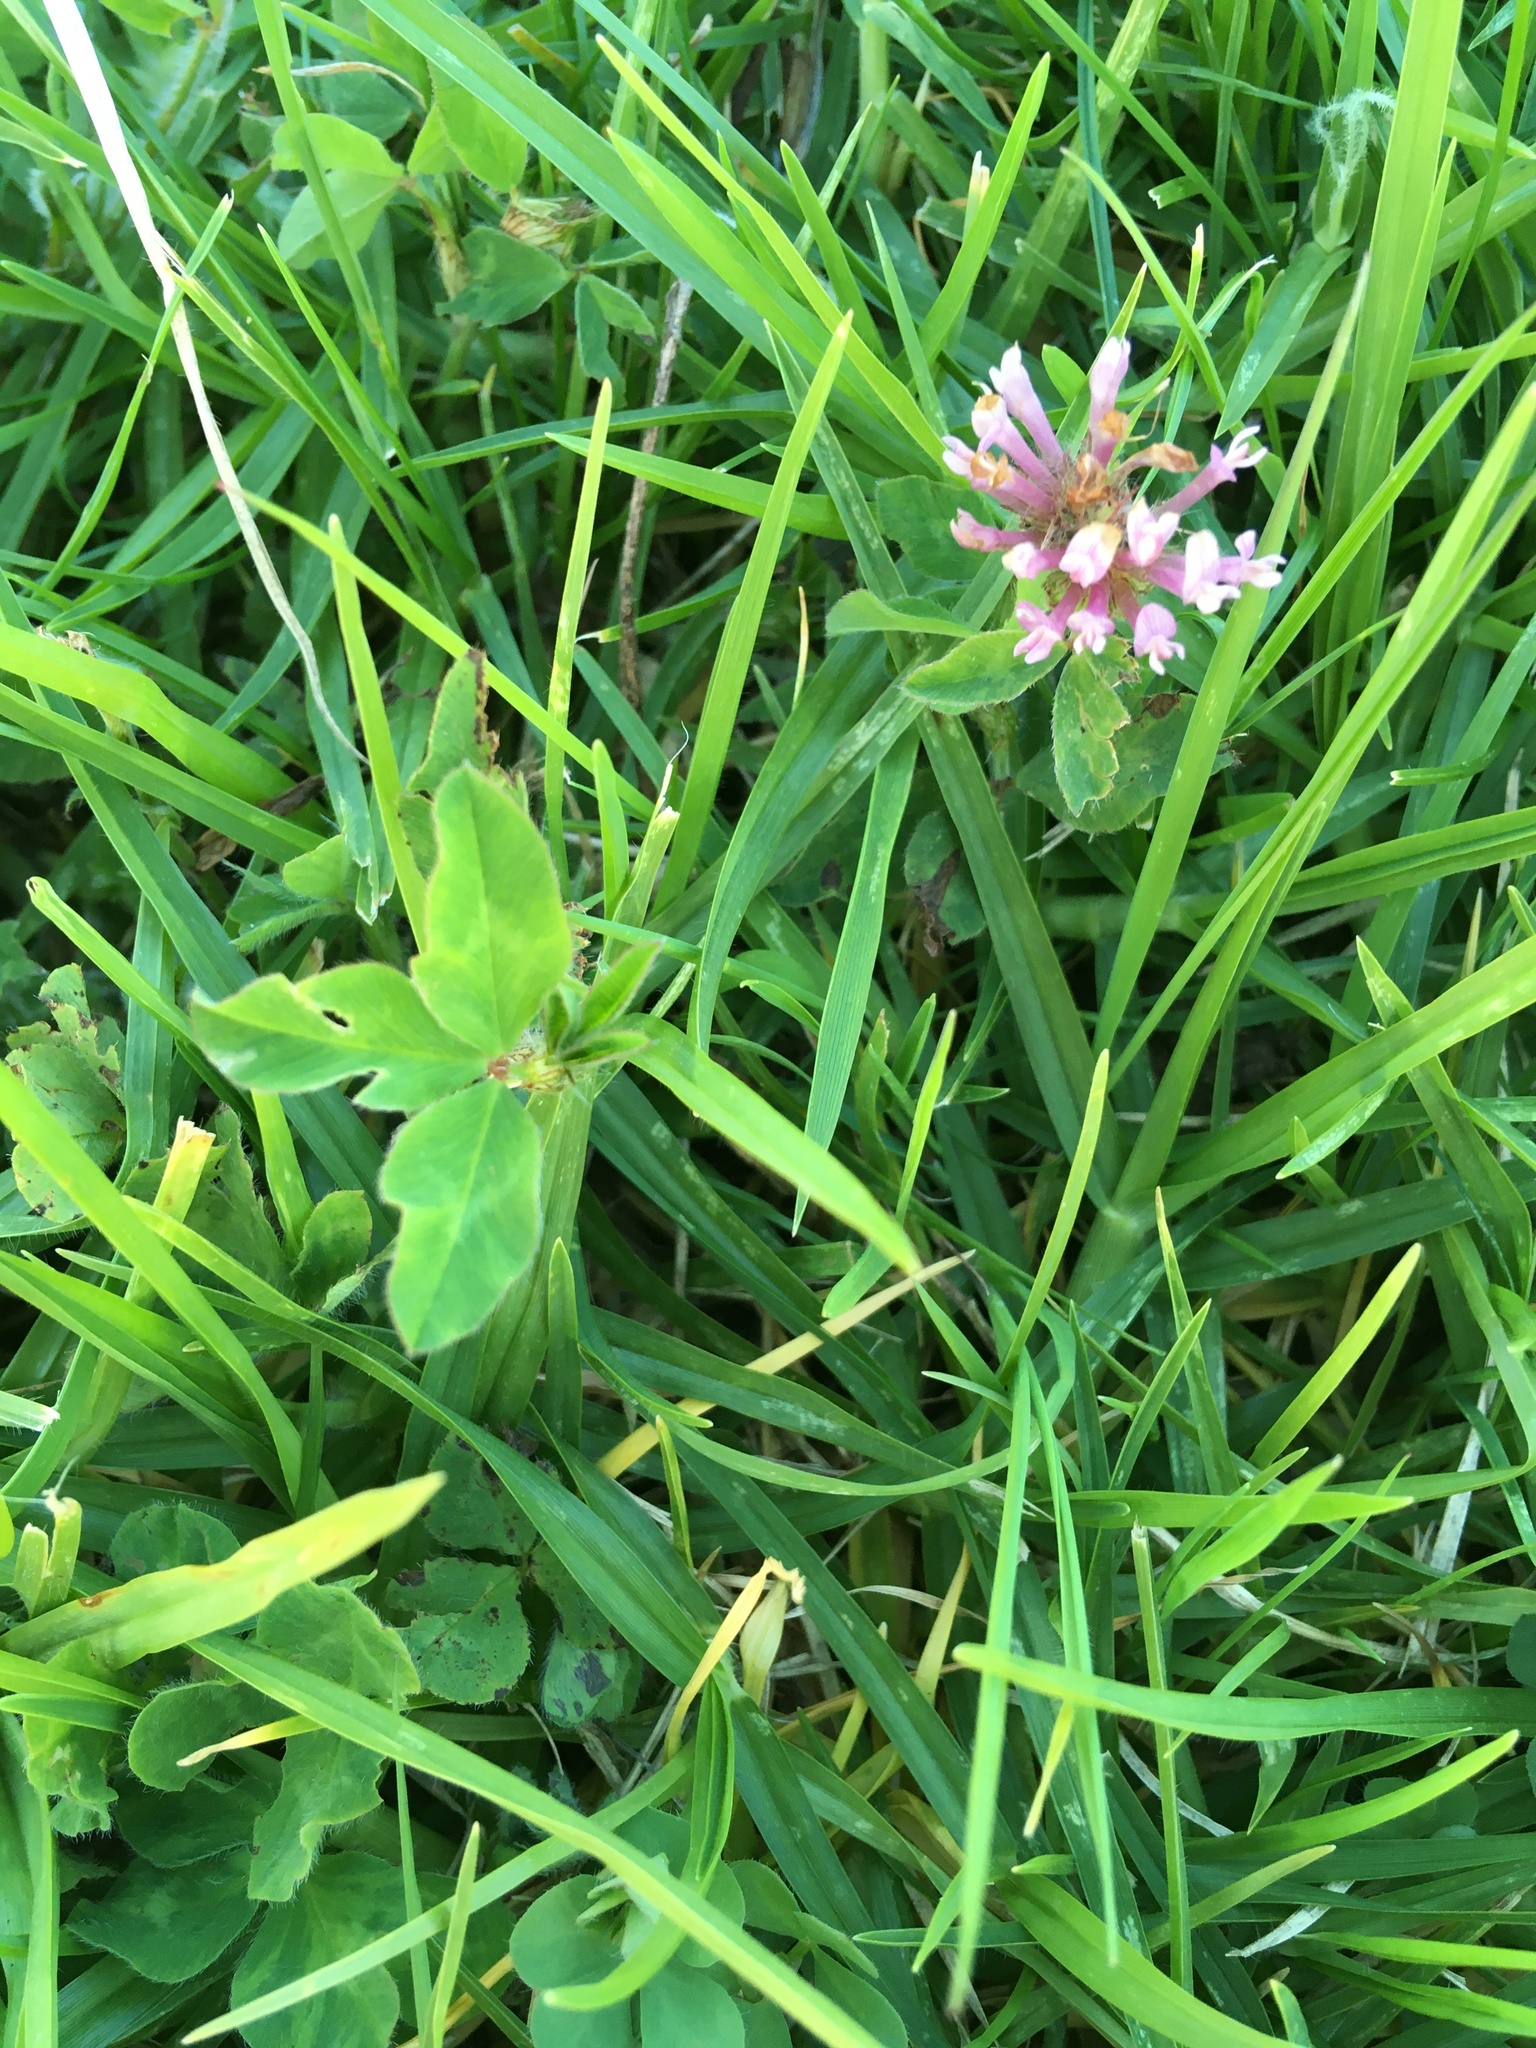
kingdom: Plantae
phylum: Tracheophyta
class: Magnoliopsida
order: Fabales
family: Fabaceae
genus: Trifolium
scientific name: Trifolium pratense
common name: Red clover
